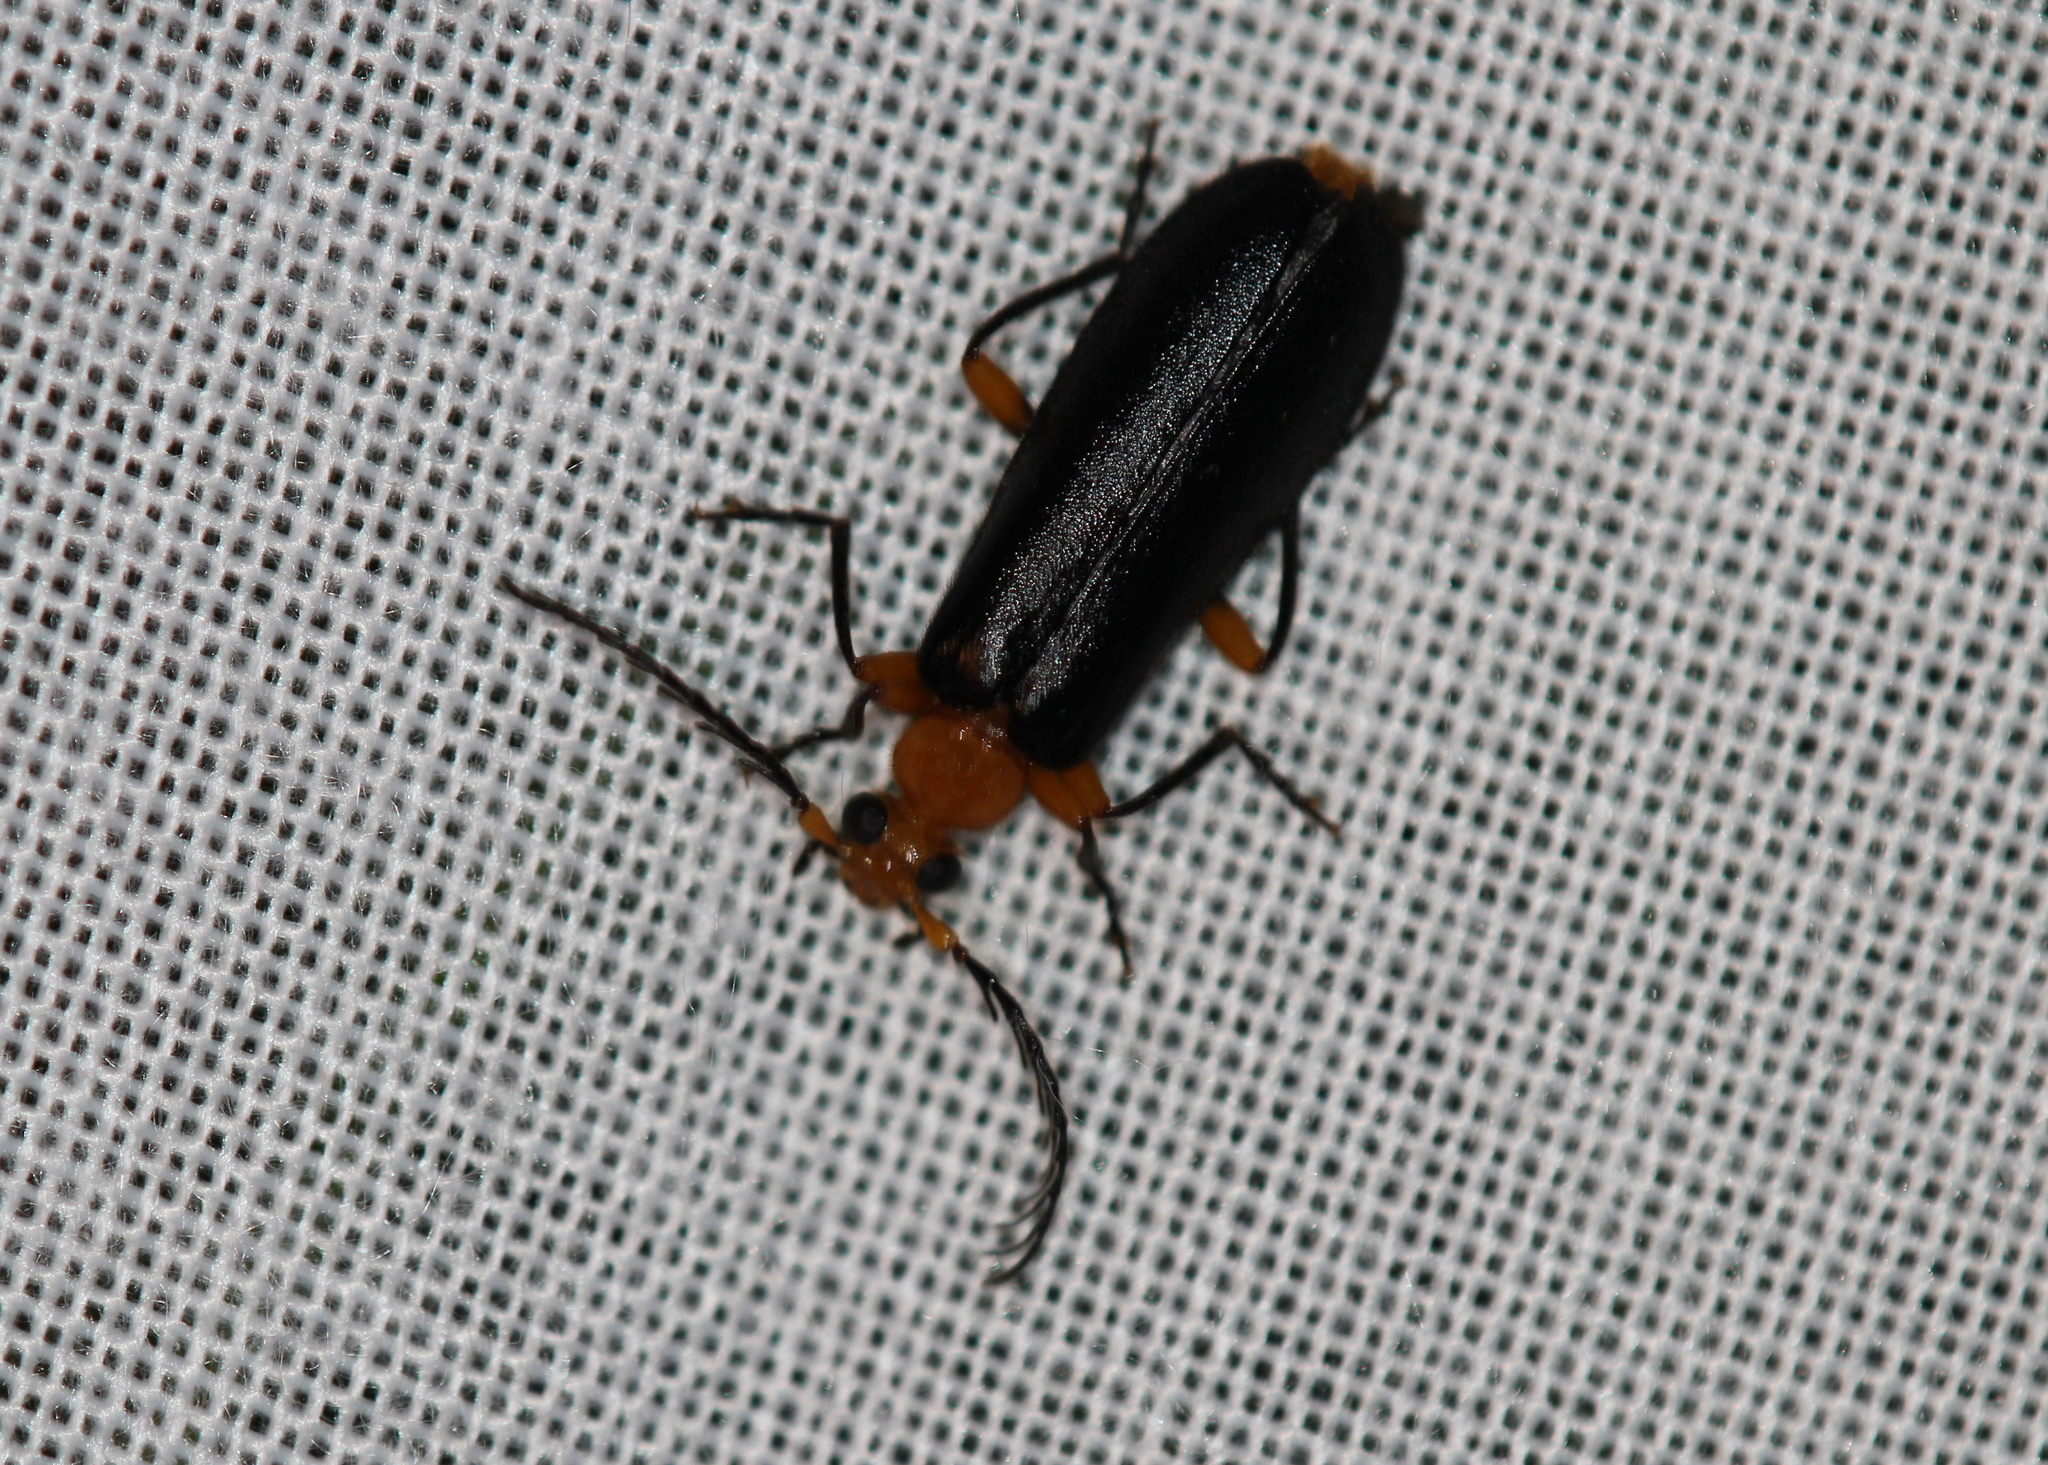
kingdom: Animalia
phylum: Arthropoda
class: Insecta
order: Coleoptera
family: Pyrochroidae
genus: Neopyrochroa
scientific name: Neopyrochroa femoralis
